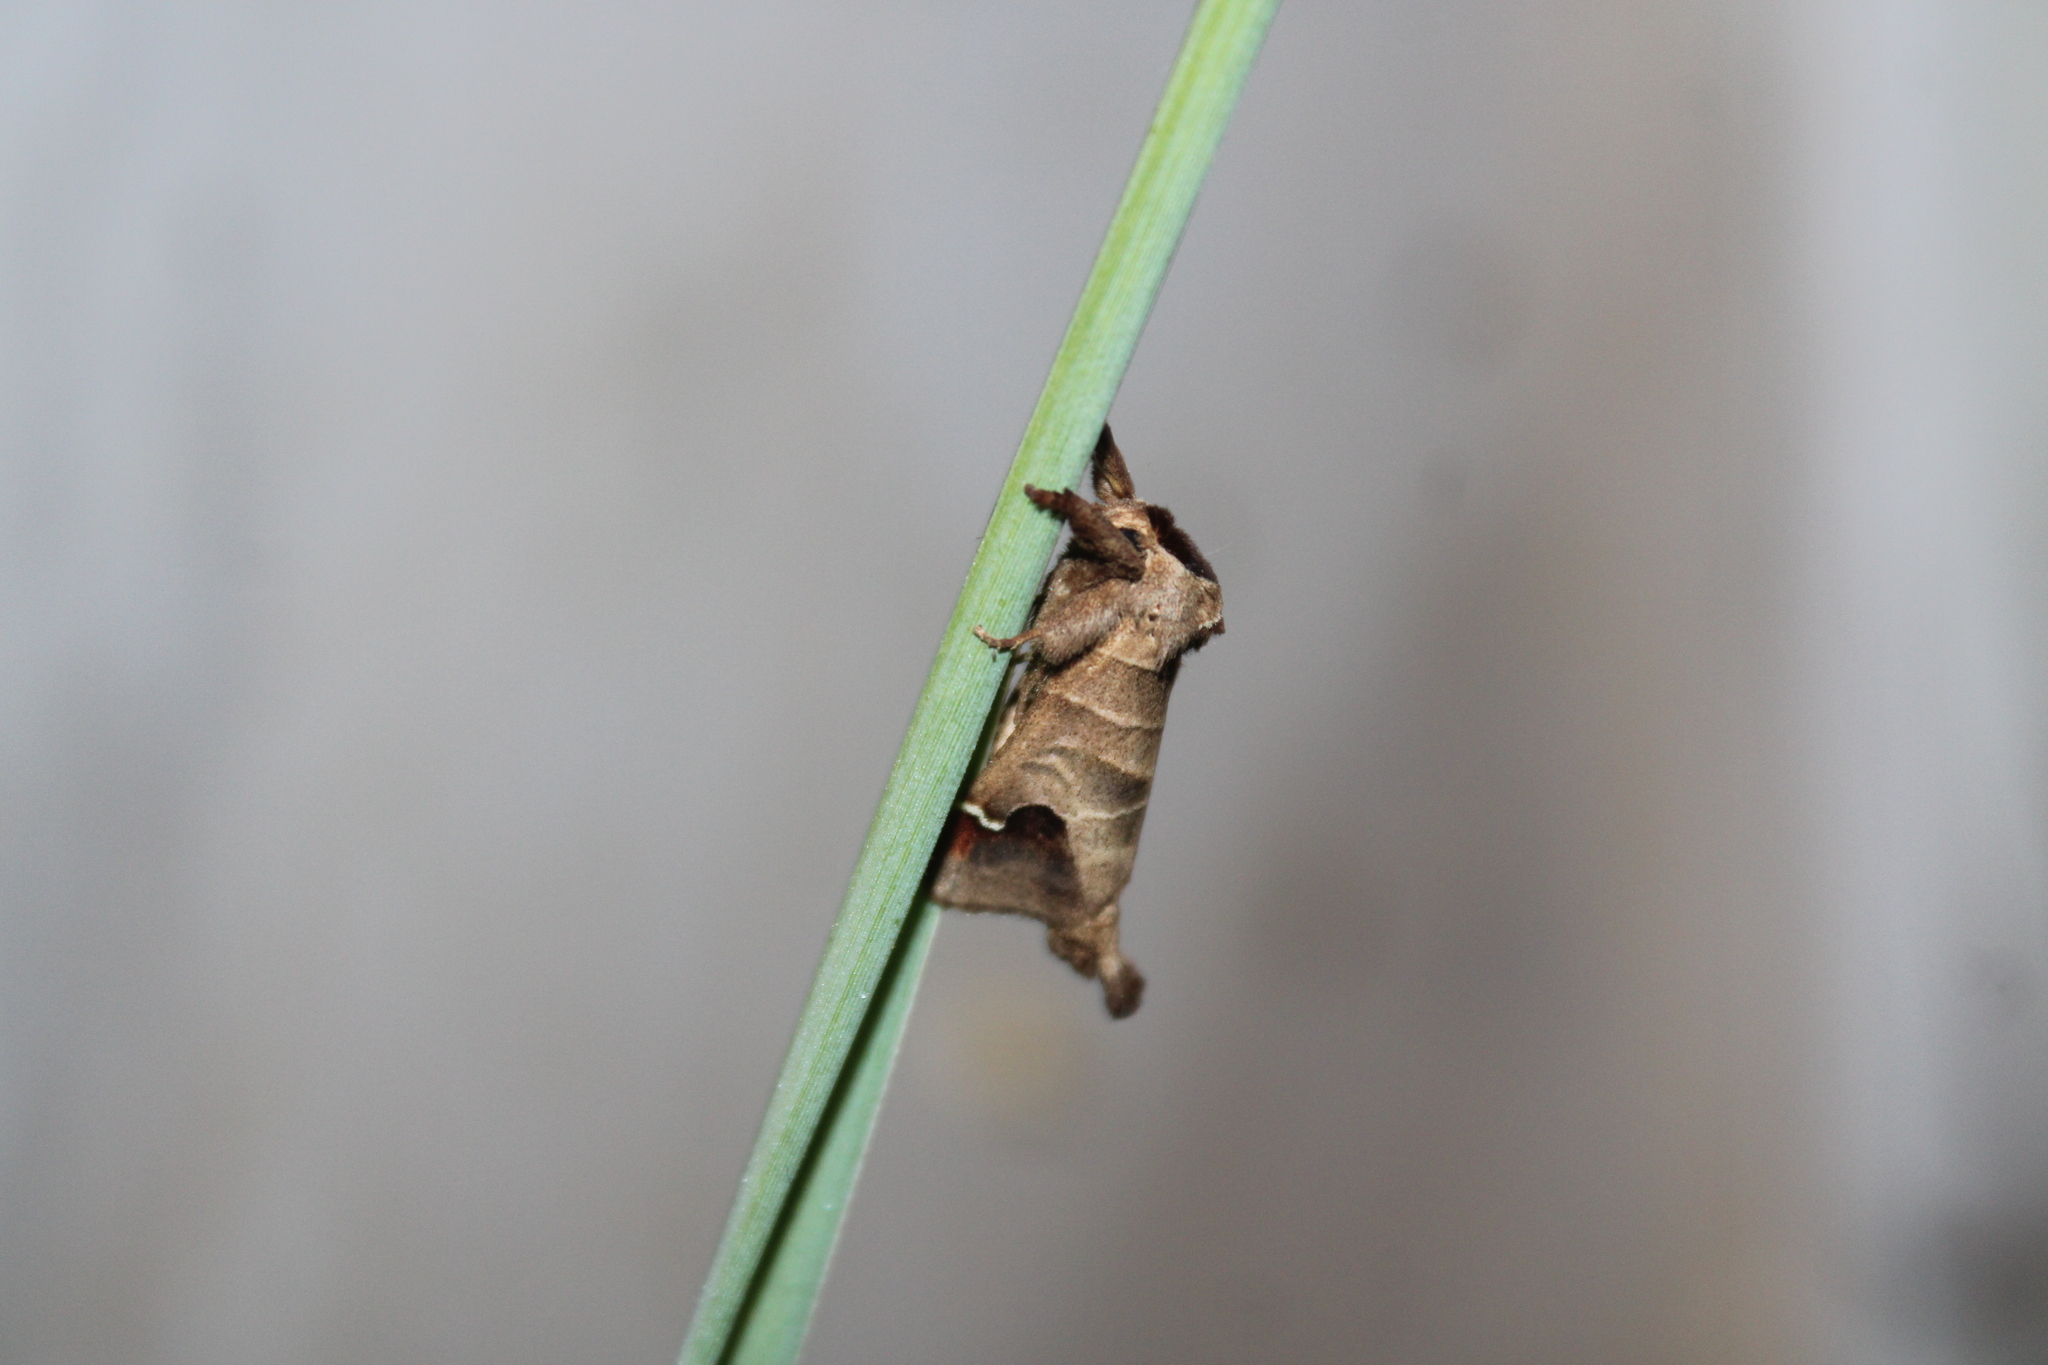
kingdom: Animalia
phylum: Arthropoda
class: Insecta
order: Lepidoptera
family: Notodontidae
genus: Clostera
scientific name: Clostera albosigma
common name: Sigmoid prominent
